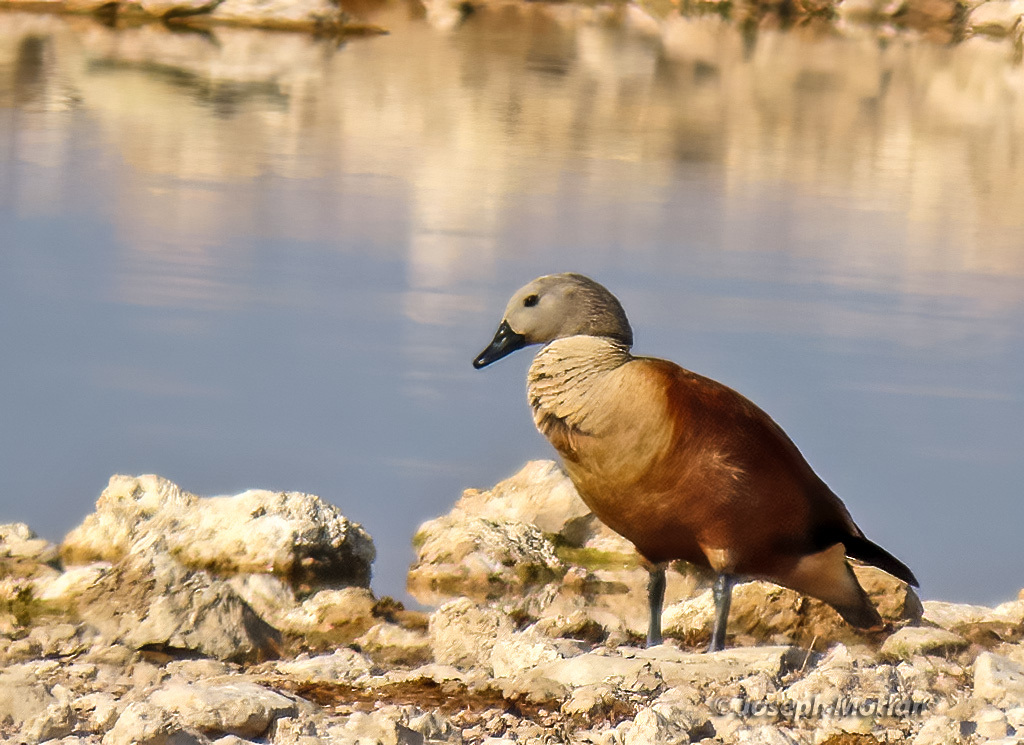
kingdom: Animalia
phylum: Chordata
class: Aves
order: Anseriformes
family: Anatidae
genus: Tadorna
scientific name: Tadorna cana
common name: South african shelduck
